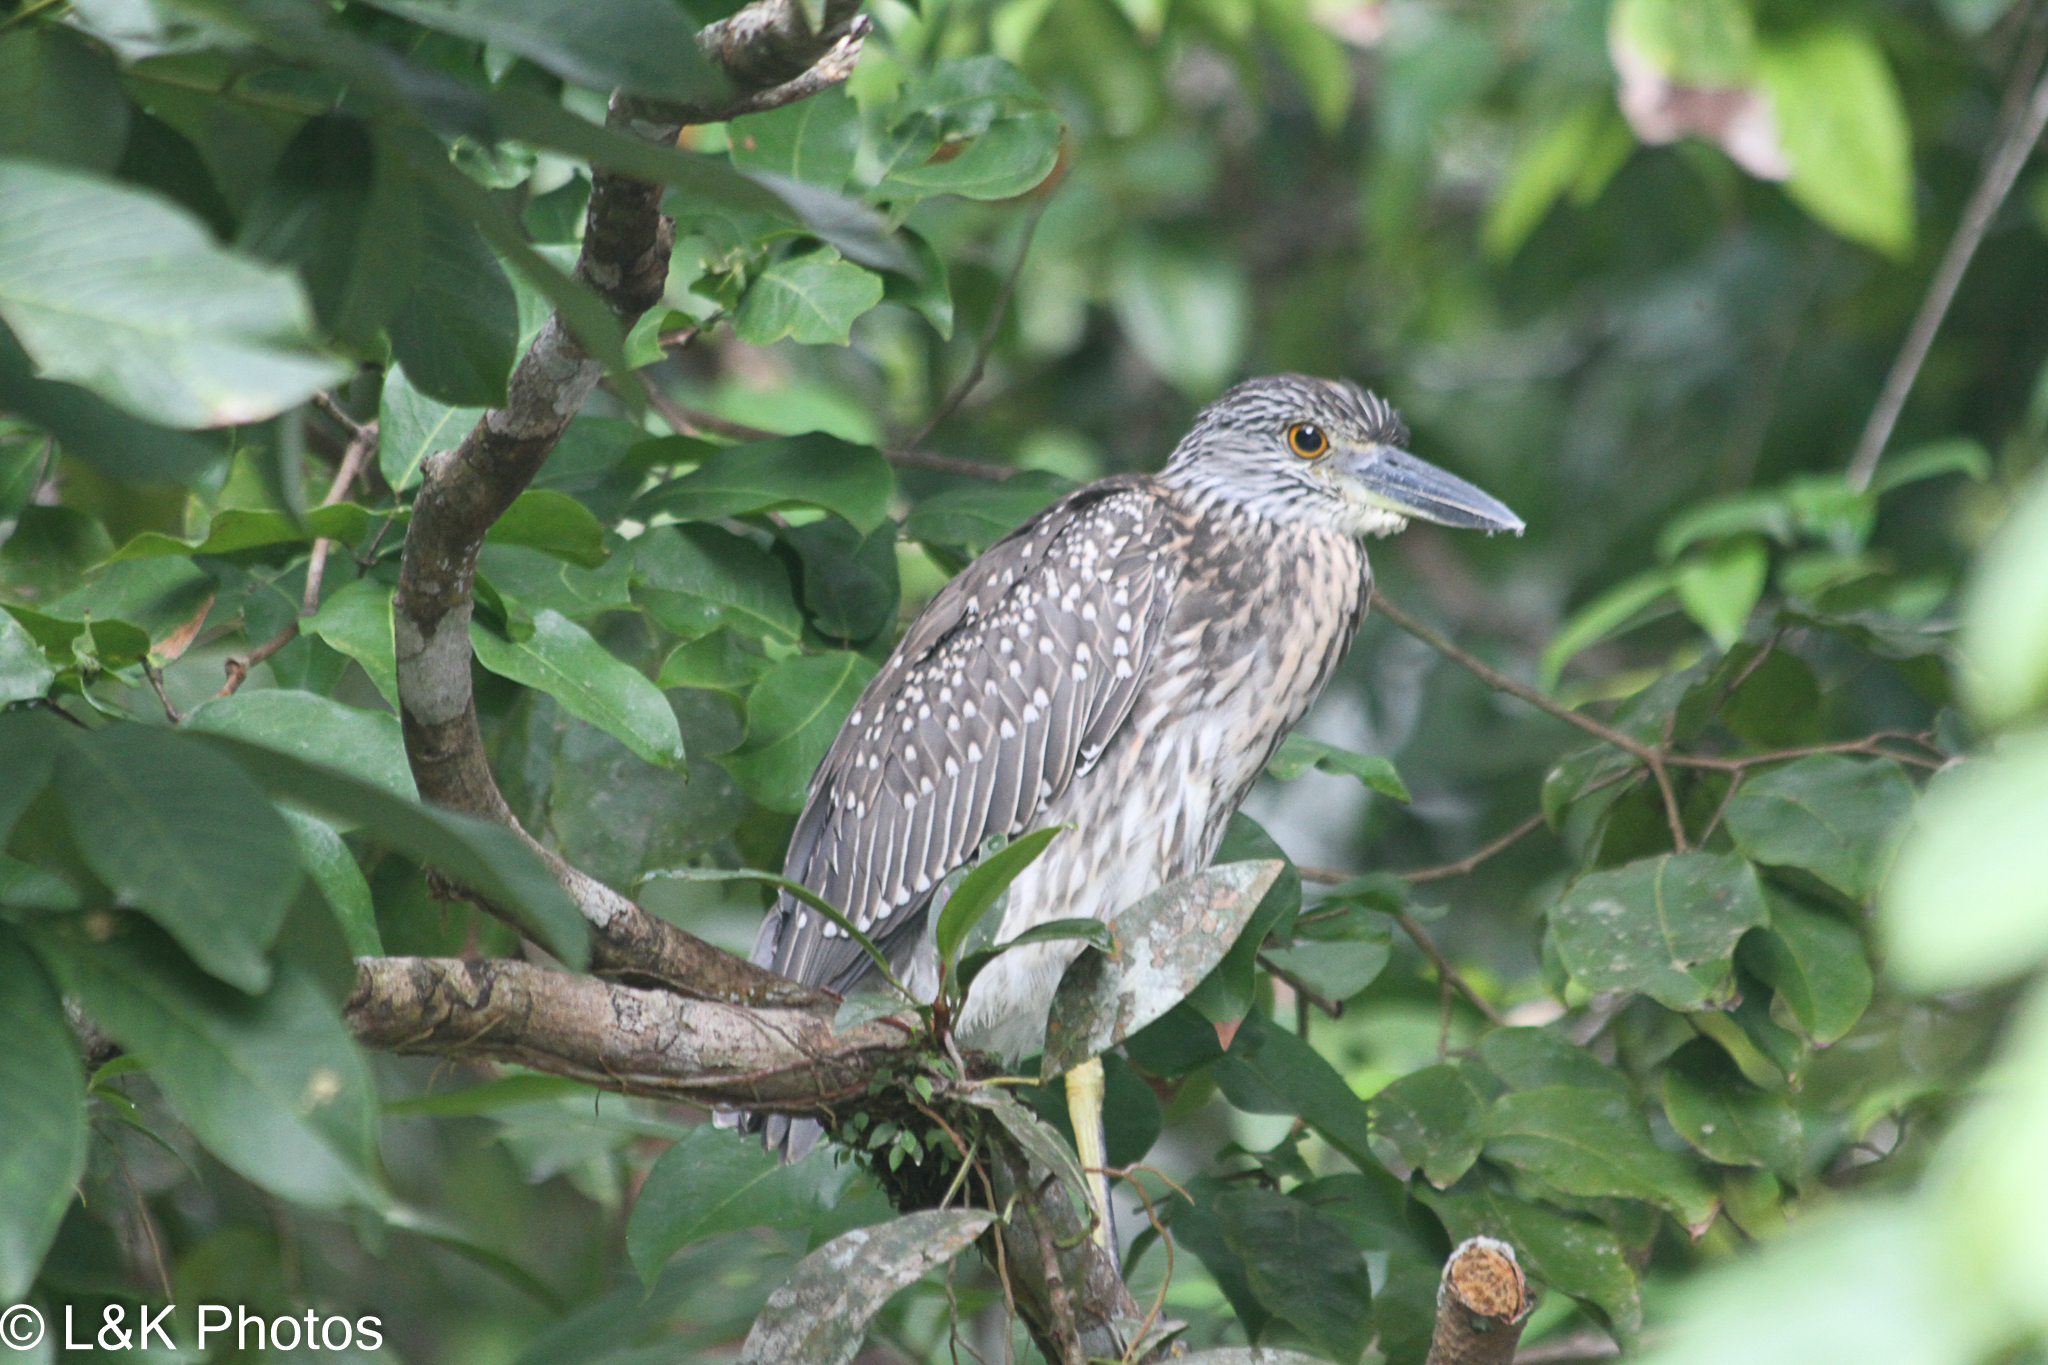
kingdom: Animalia
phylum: Chordata
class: Aves
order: Pelecaniformes
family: Ardeidae
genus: Nyctanassa
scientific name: Nyctanassa violacea
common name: Yellow-crowned night heron
